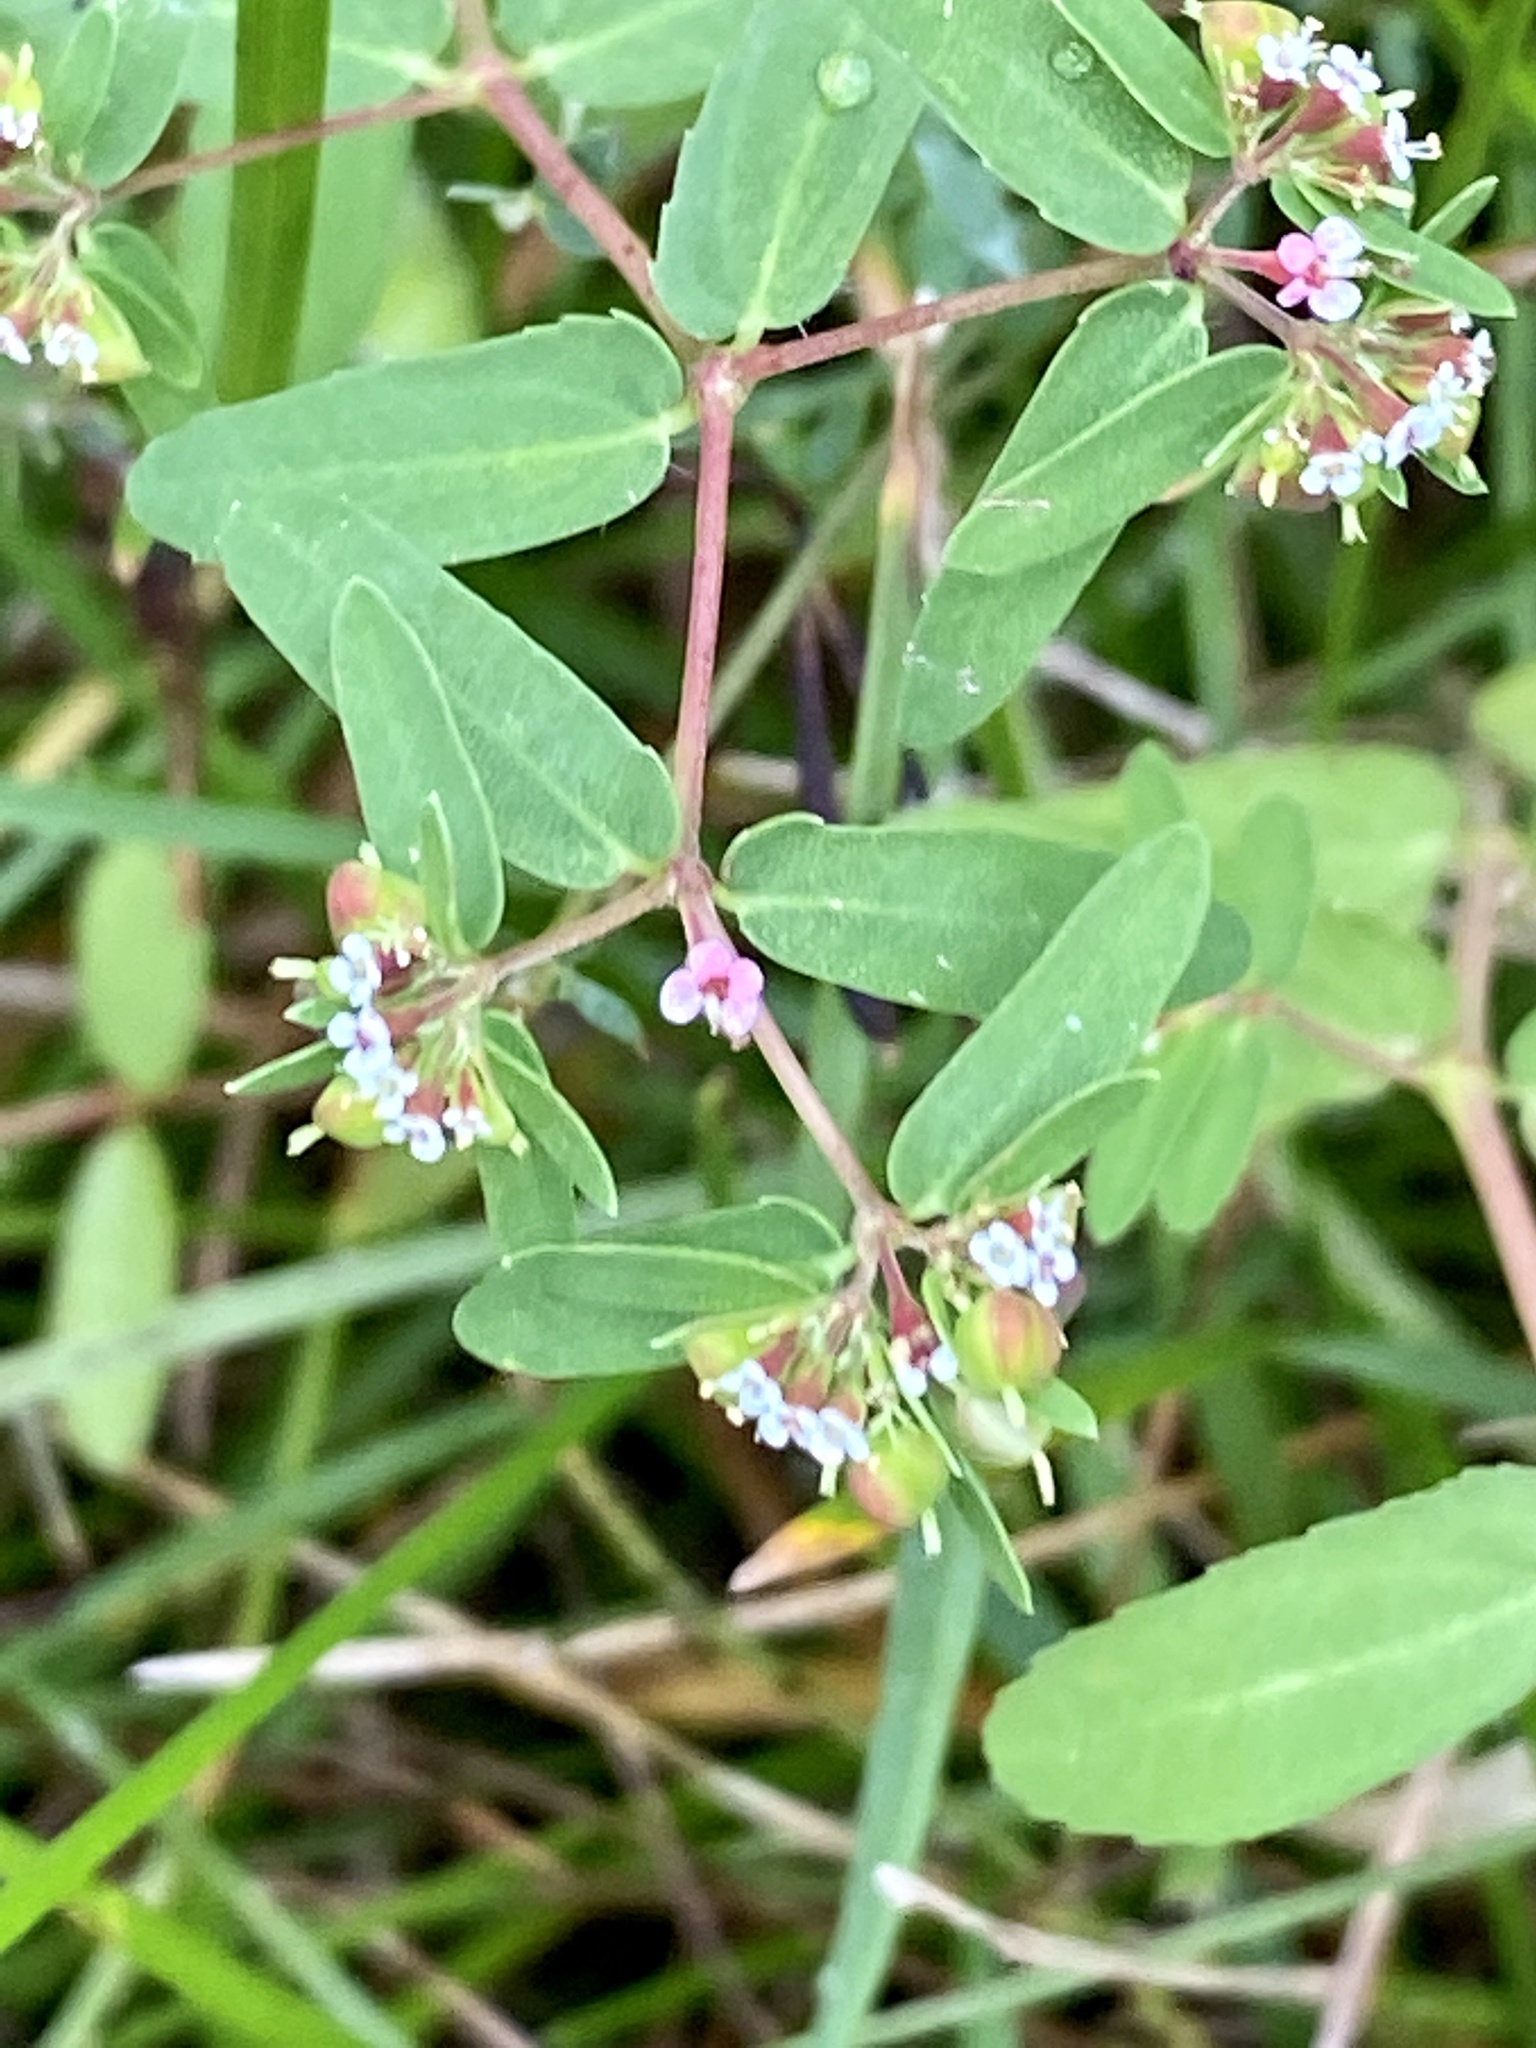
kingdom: Plantae
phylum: Tracheophyta
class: Magnoliopsida
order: Malpighiales
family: Euphorbiaceae
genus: Euphorbia
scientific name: Euphorbia nutans
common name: Eyebane
